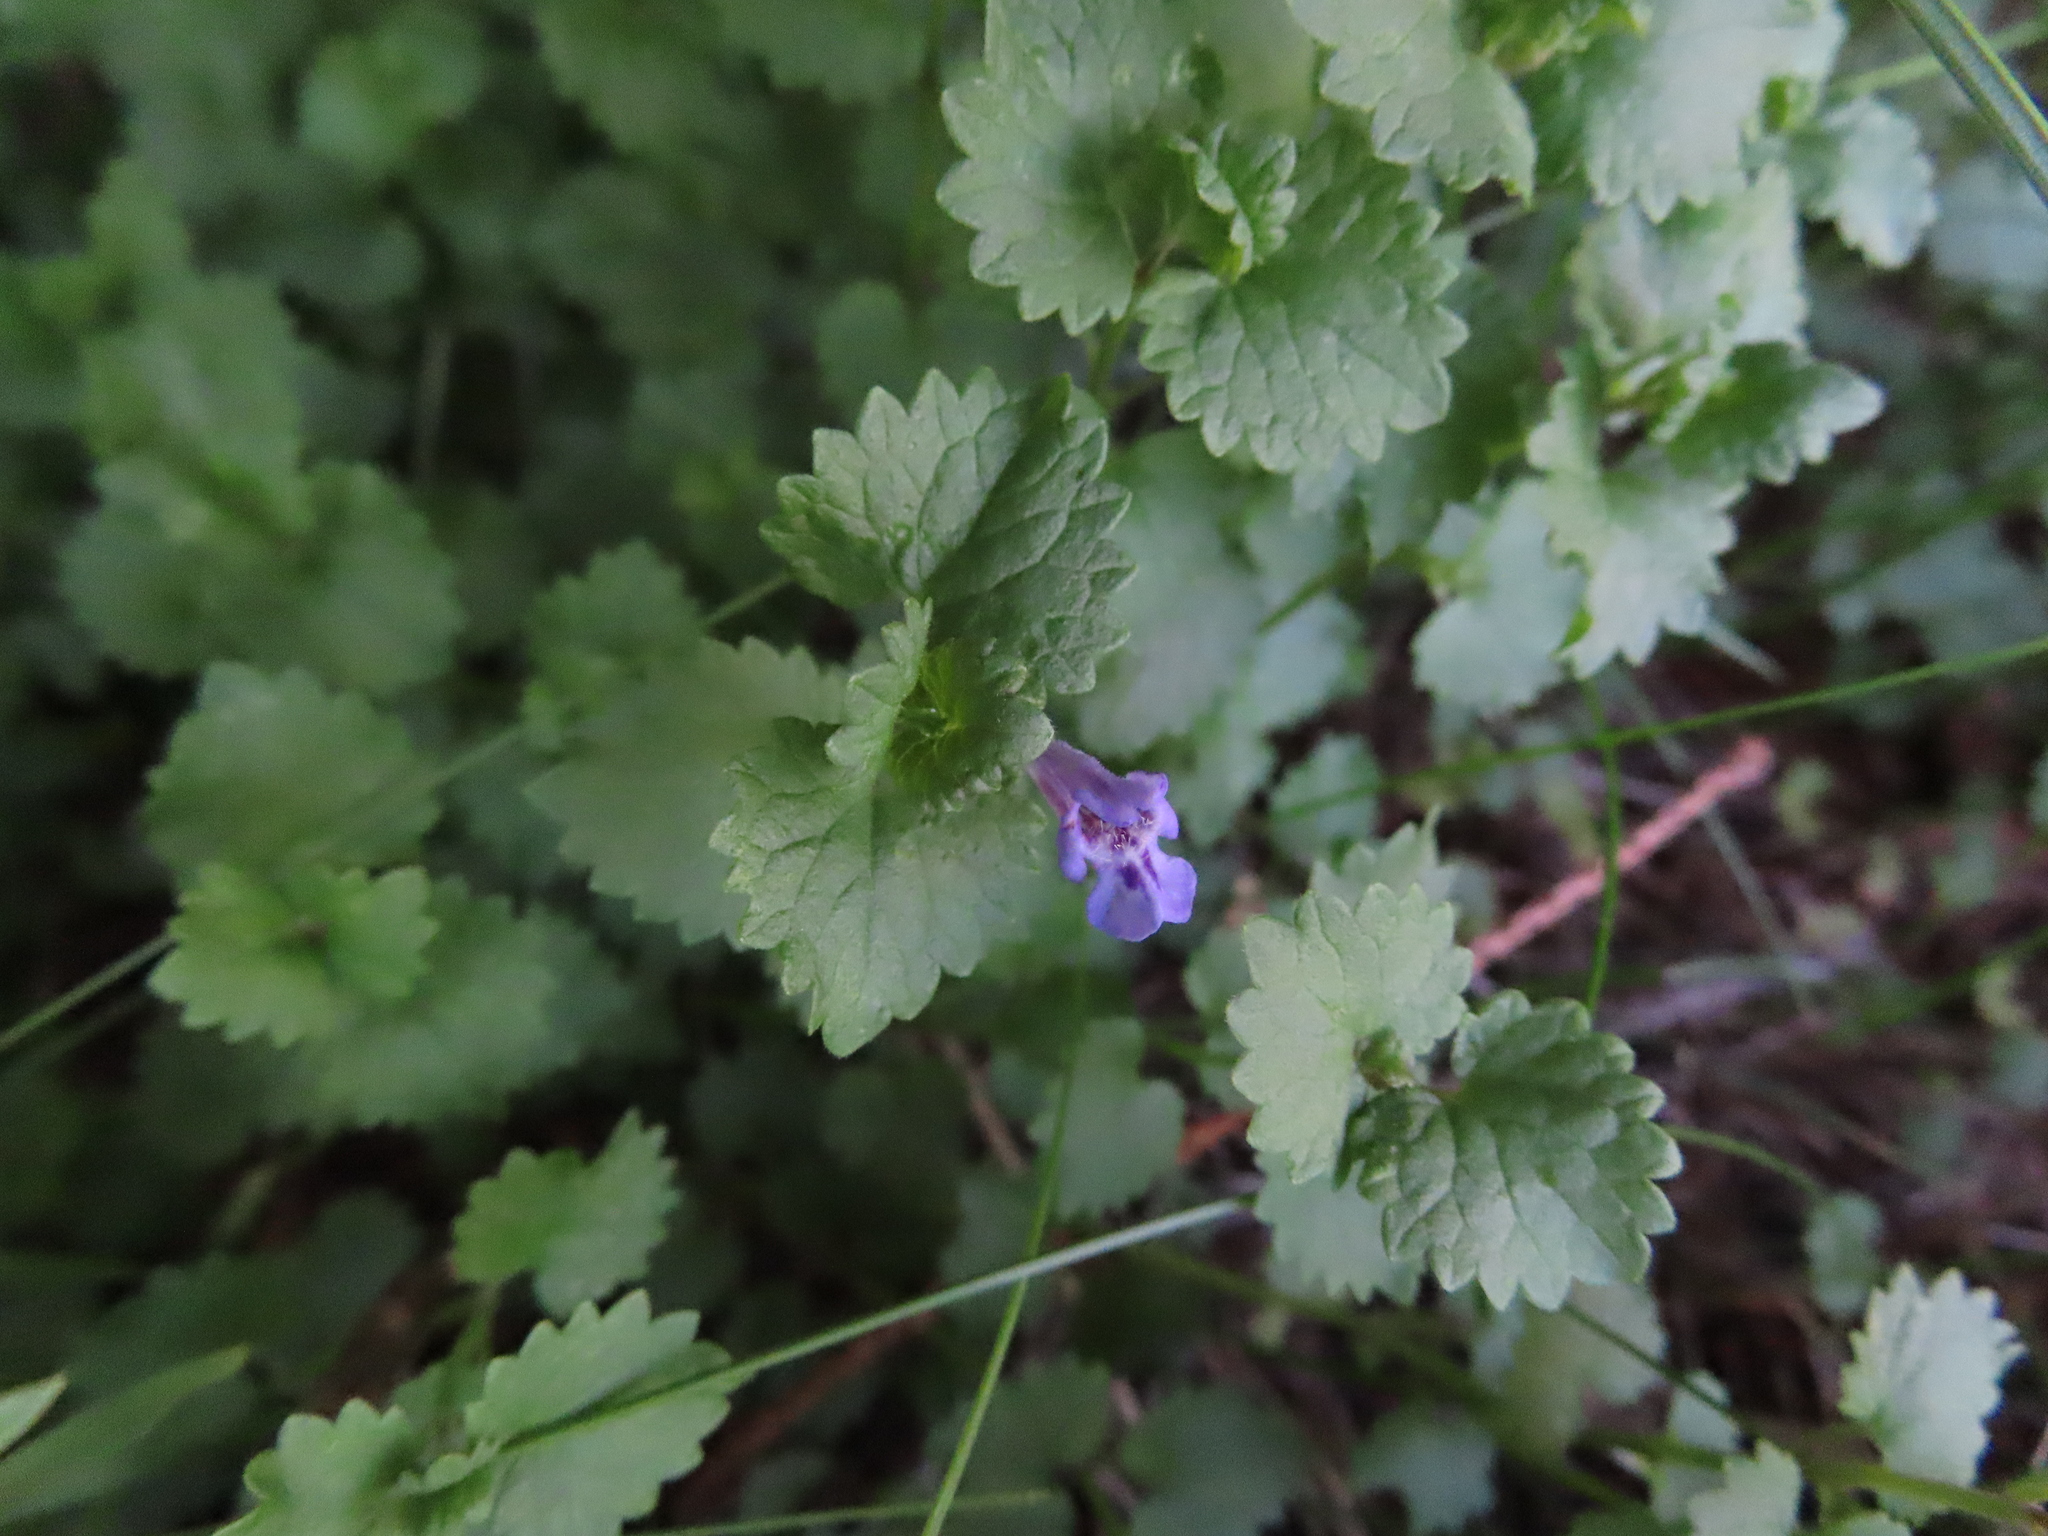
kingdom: Plantae
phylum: Tracheophyta
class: Magnoliopsida
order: Lamiales
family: Lamiaceae
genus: Glechoma
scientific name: Glechoma hederacea
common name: Ground ivy
